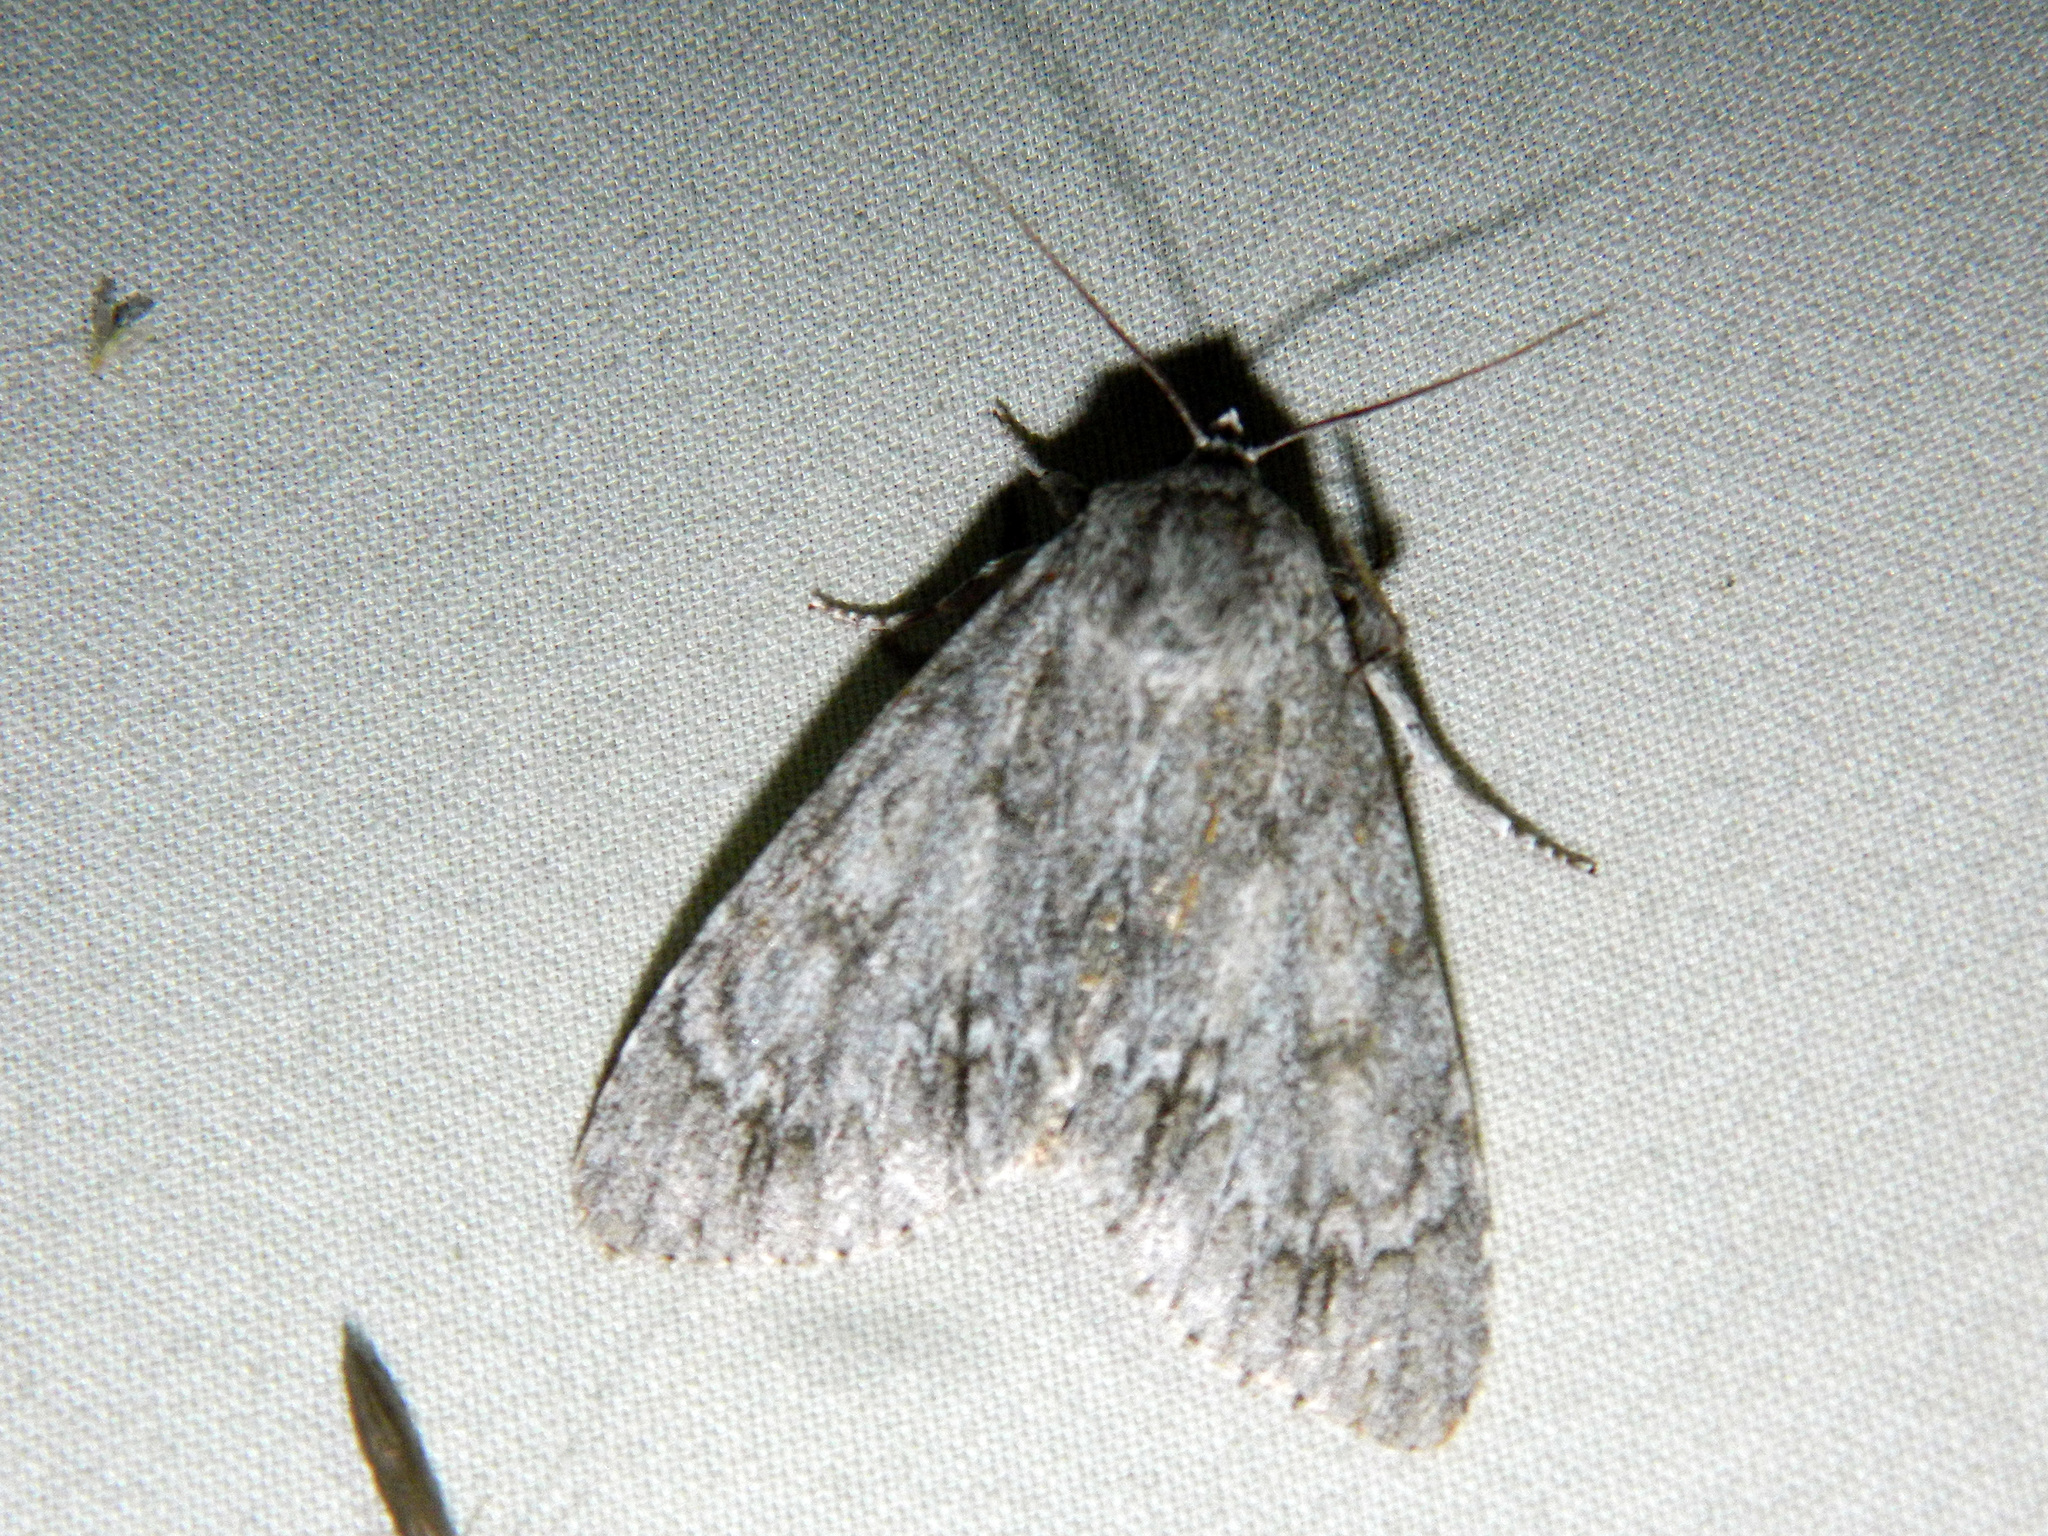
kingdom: Animalia
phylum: Arthropoda
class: Insecta
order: Lepidoptera
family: Noctuidae
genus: Acronicta
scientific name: Acronicta americana
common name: American dagger
